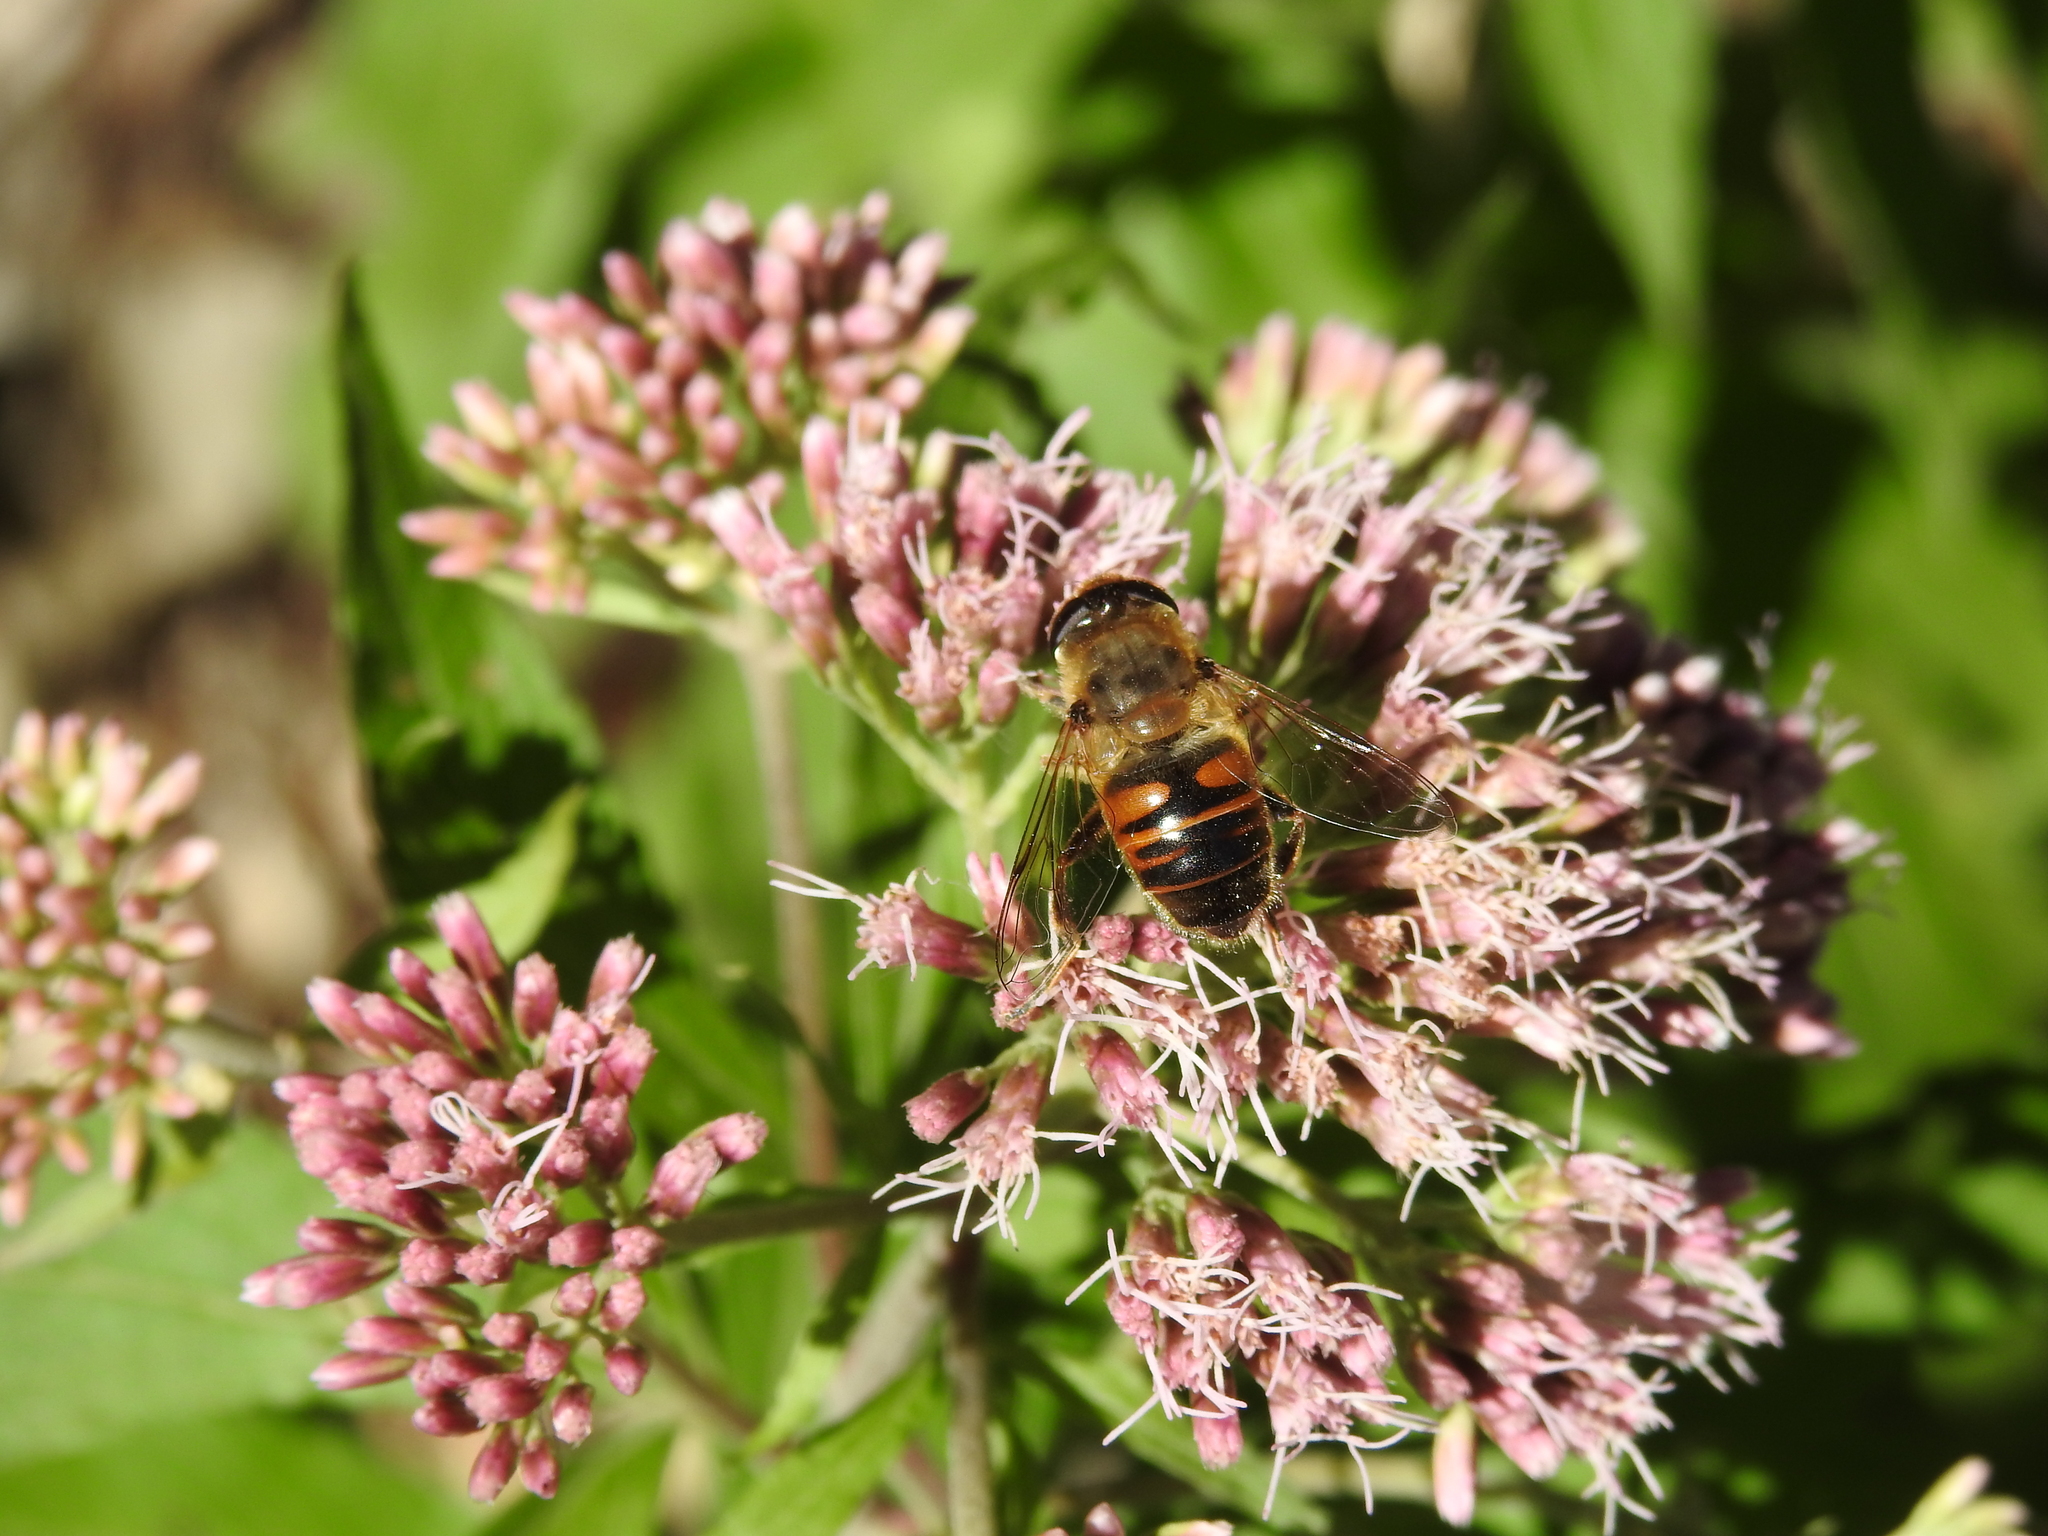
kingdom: Animalia
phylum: Arthropoda
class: Insecta
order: Diptera
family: Syrphidae
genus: Eristalis
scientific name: Eristalis tenax
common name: Drone fly
